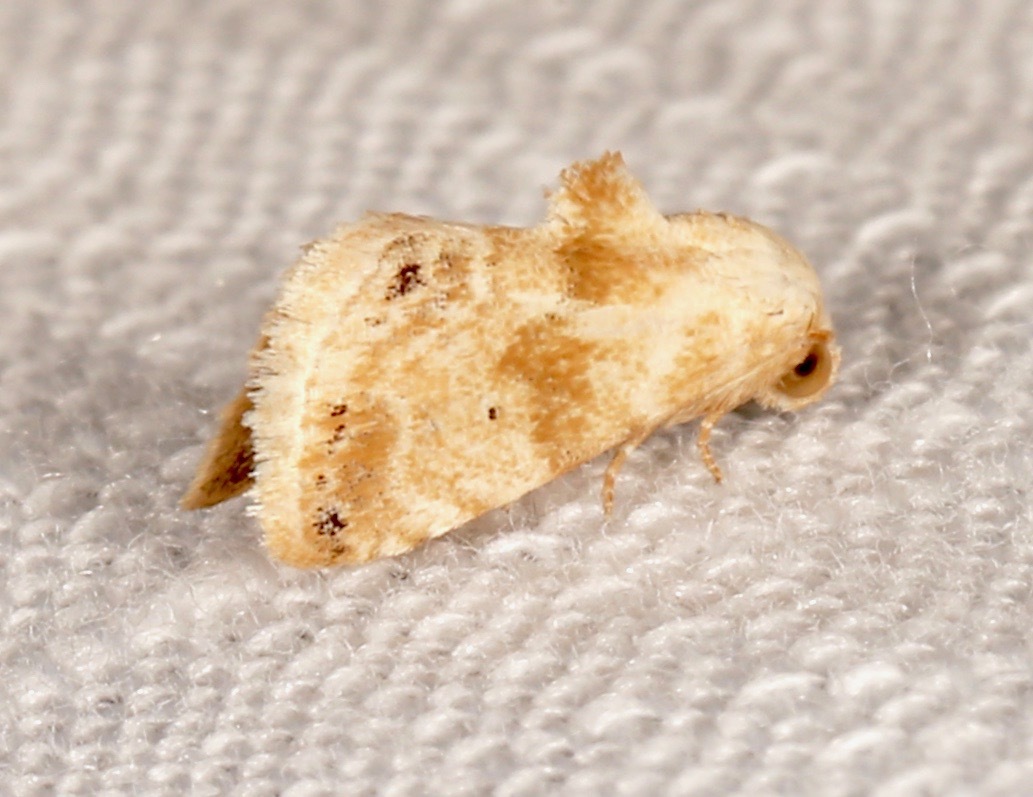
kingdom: Animalia
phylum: Arthropoda
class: Insecta
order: Lepidoptera
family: Noctuidae
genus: Eublemma
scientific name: Eublemma minima
